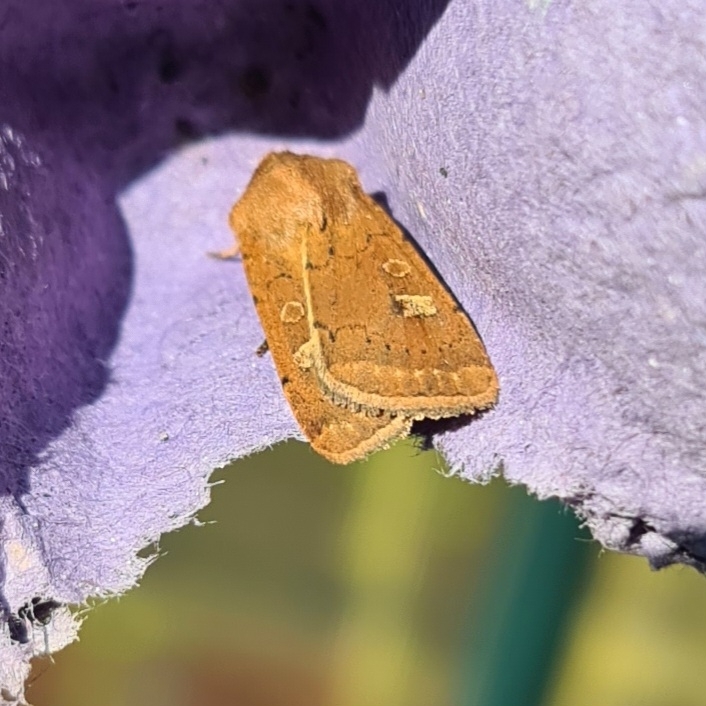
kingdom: Animalia
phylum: Arthropoda
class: Insecta
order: Lepidoptera
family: Noctuidae
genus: Xestia
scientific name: Xestia xanthographa
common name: Square-spot rustic
